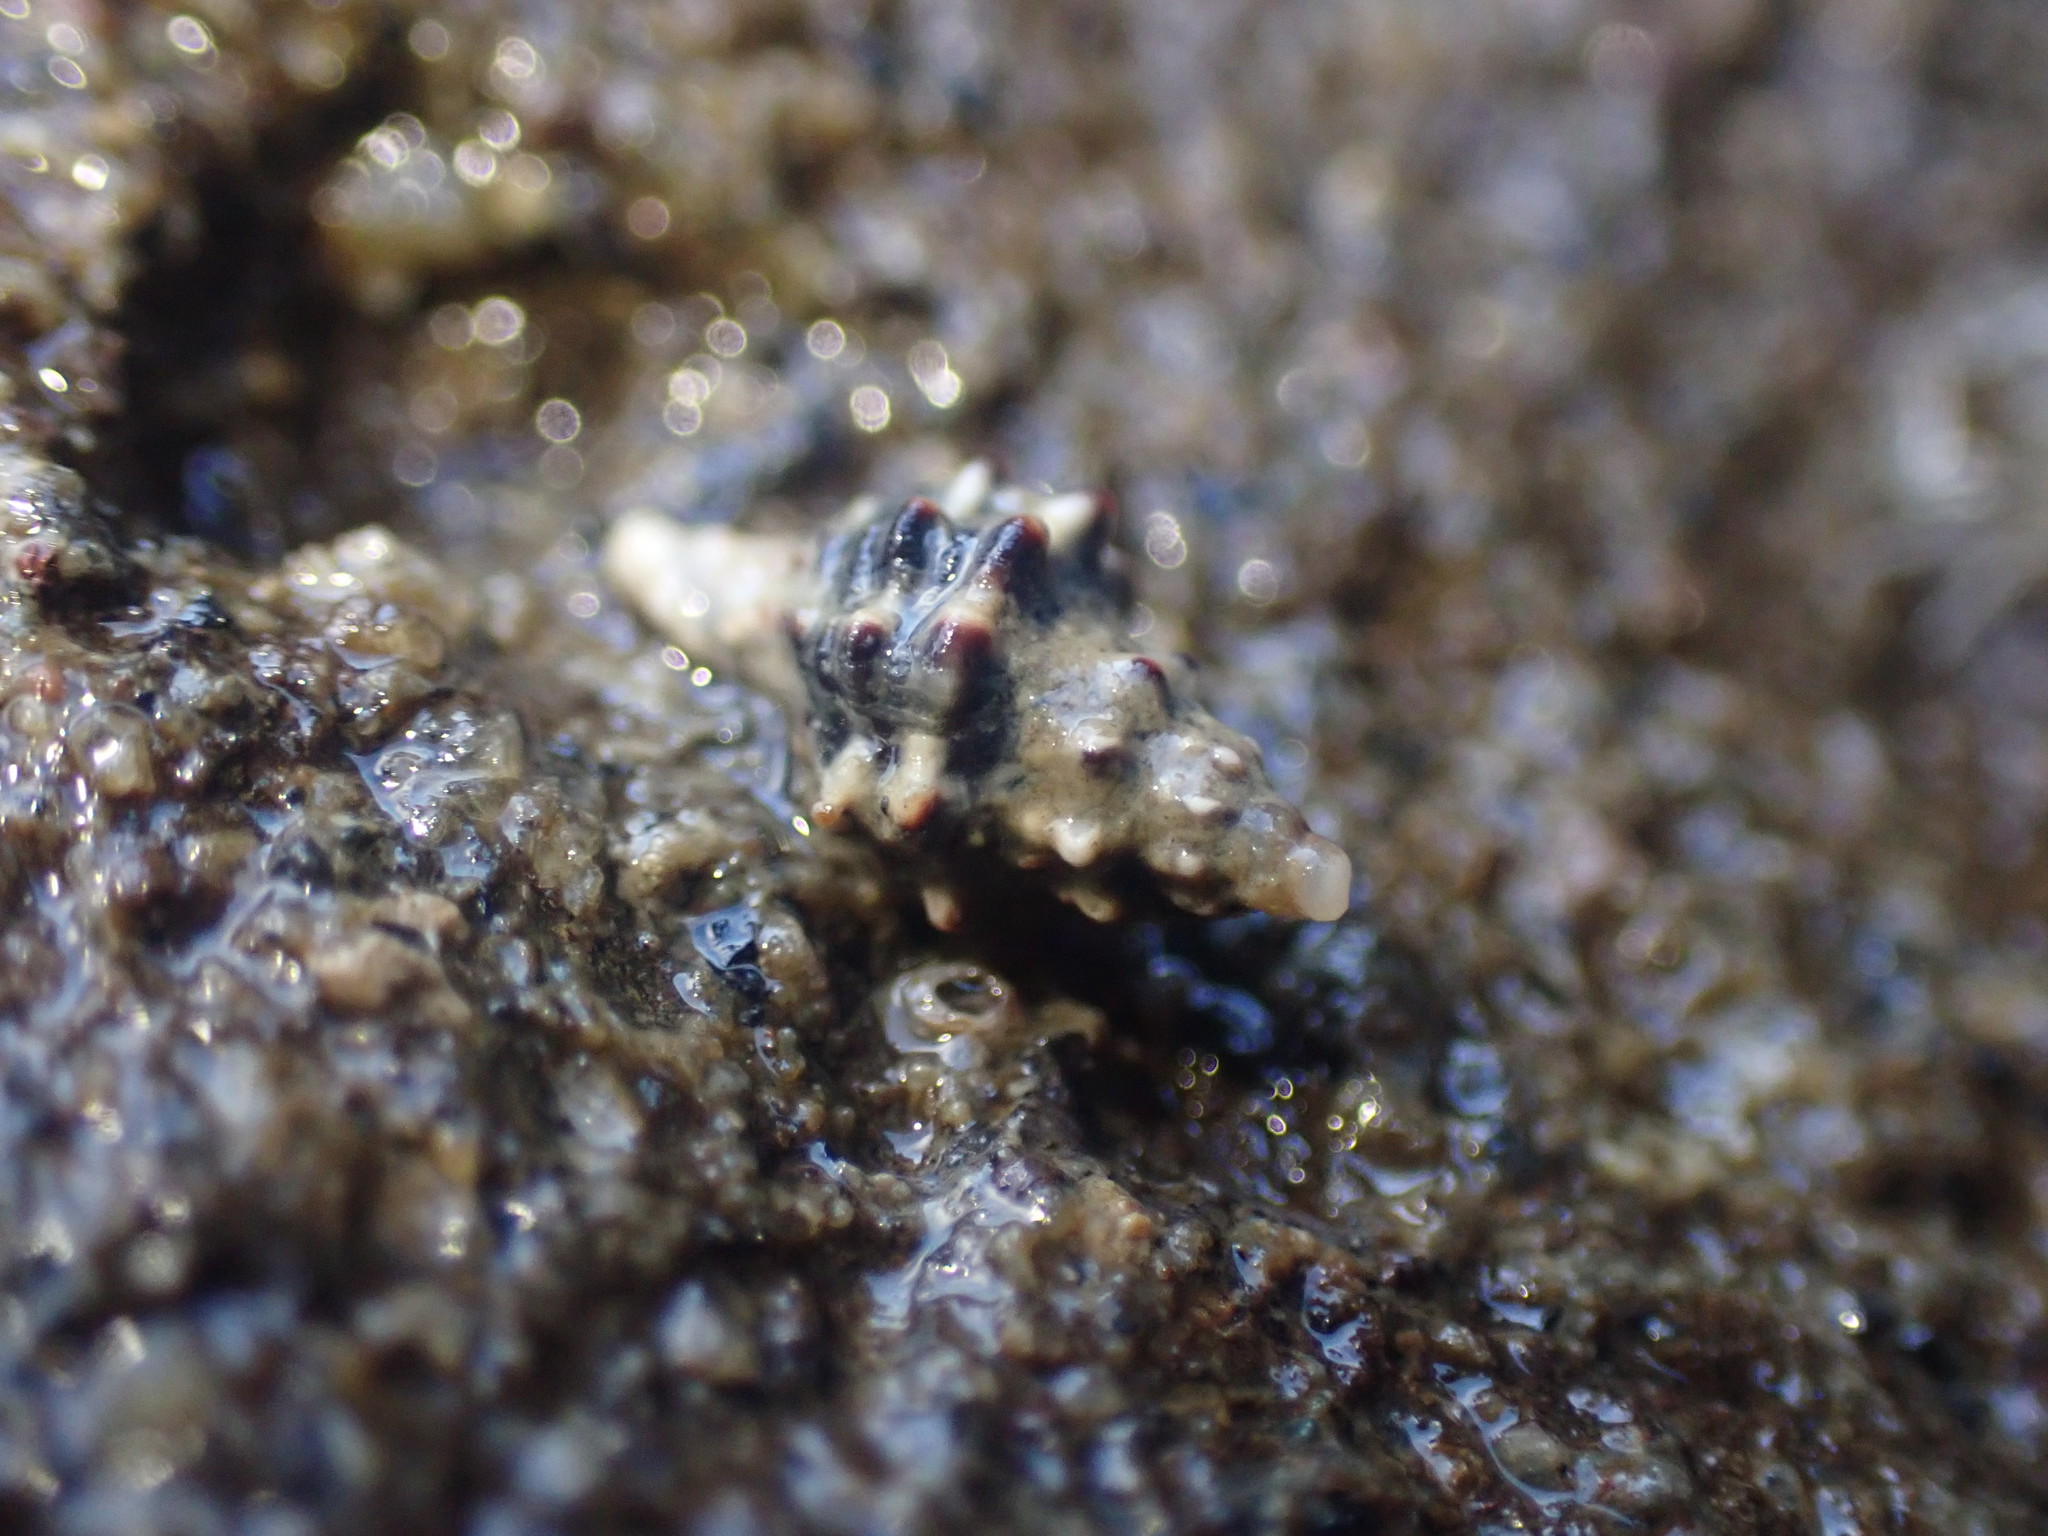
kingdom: Animalia
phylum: Mollusca
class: Gastropoda
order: Neogastropoda
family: Muricidae
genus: Haustrum
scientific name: Haustrum scobina
